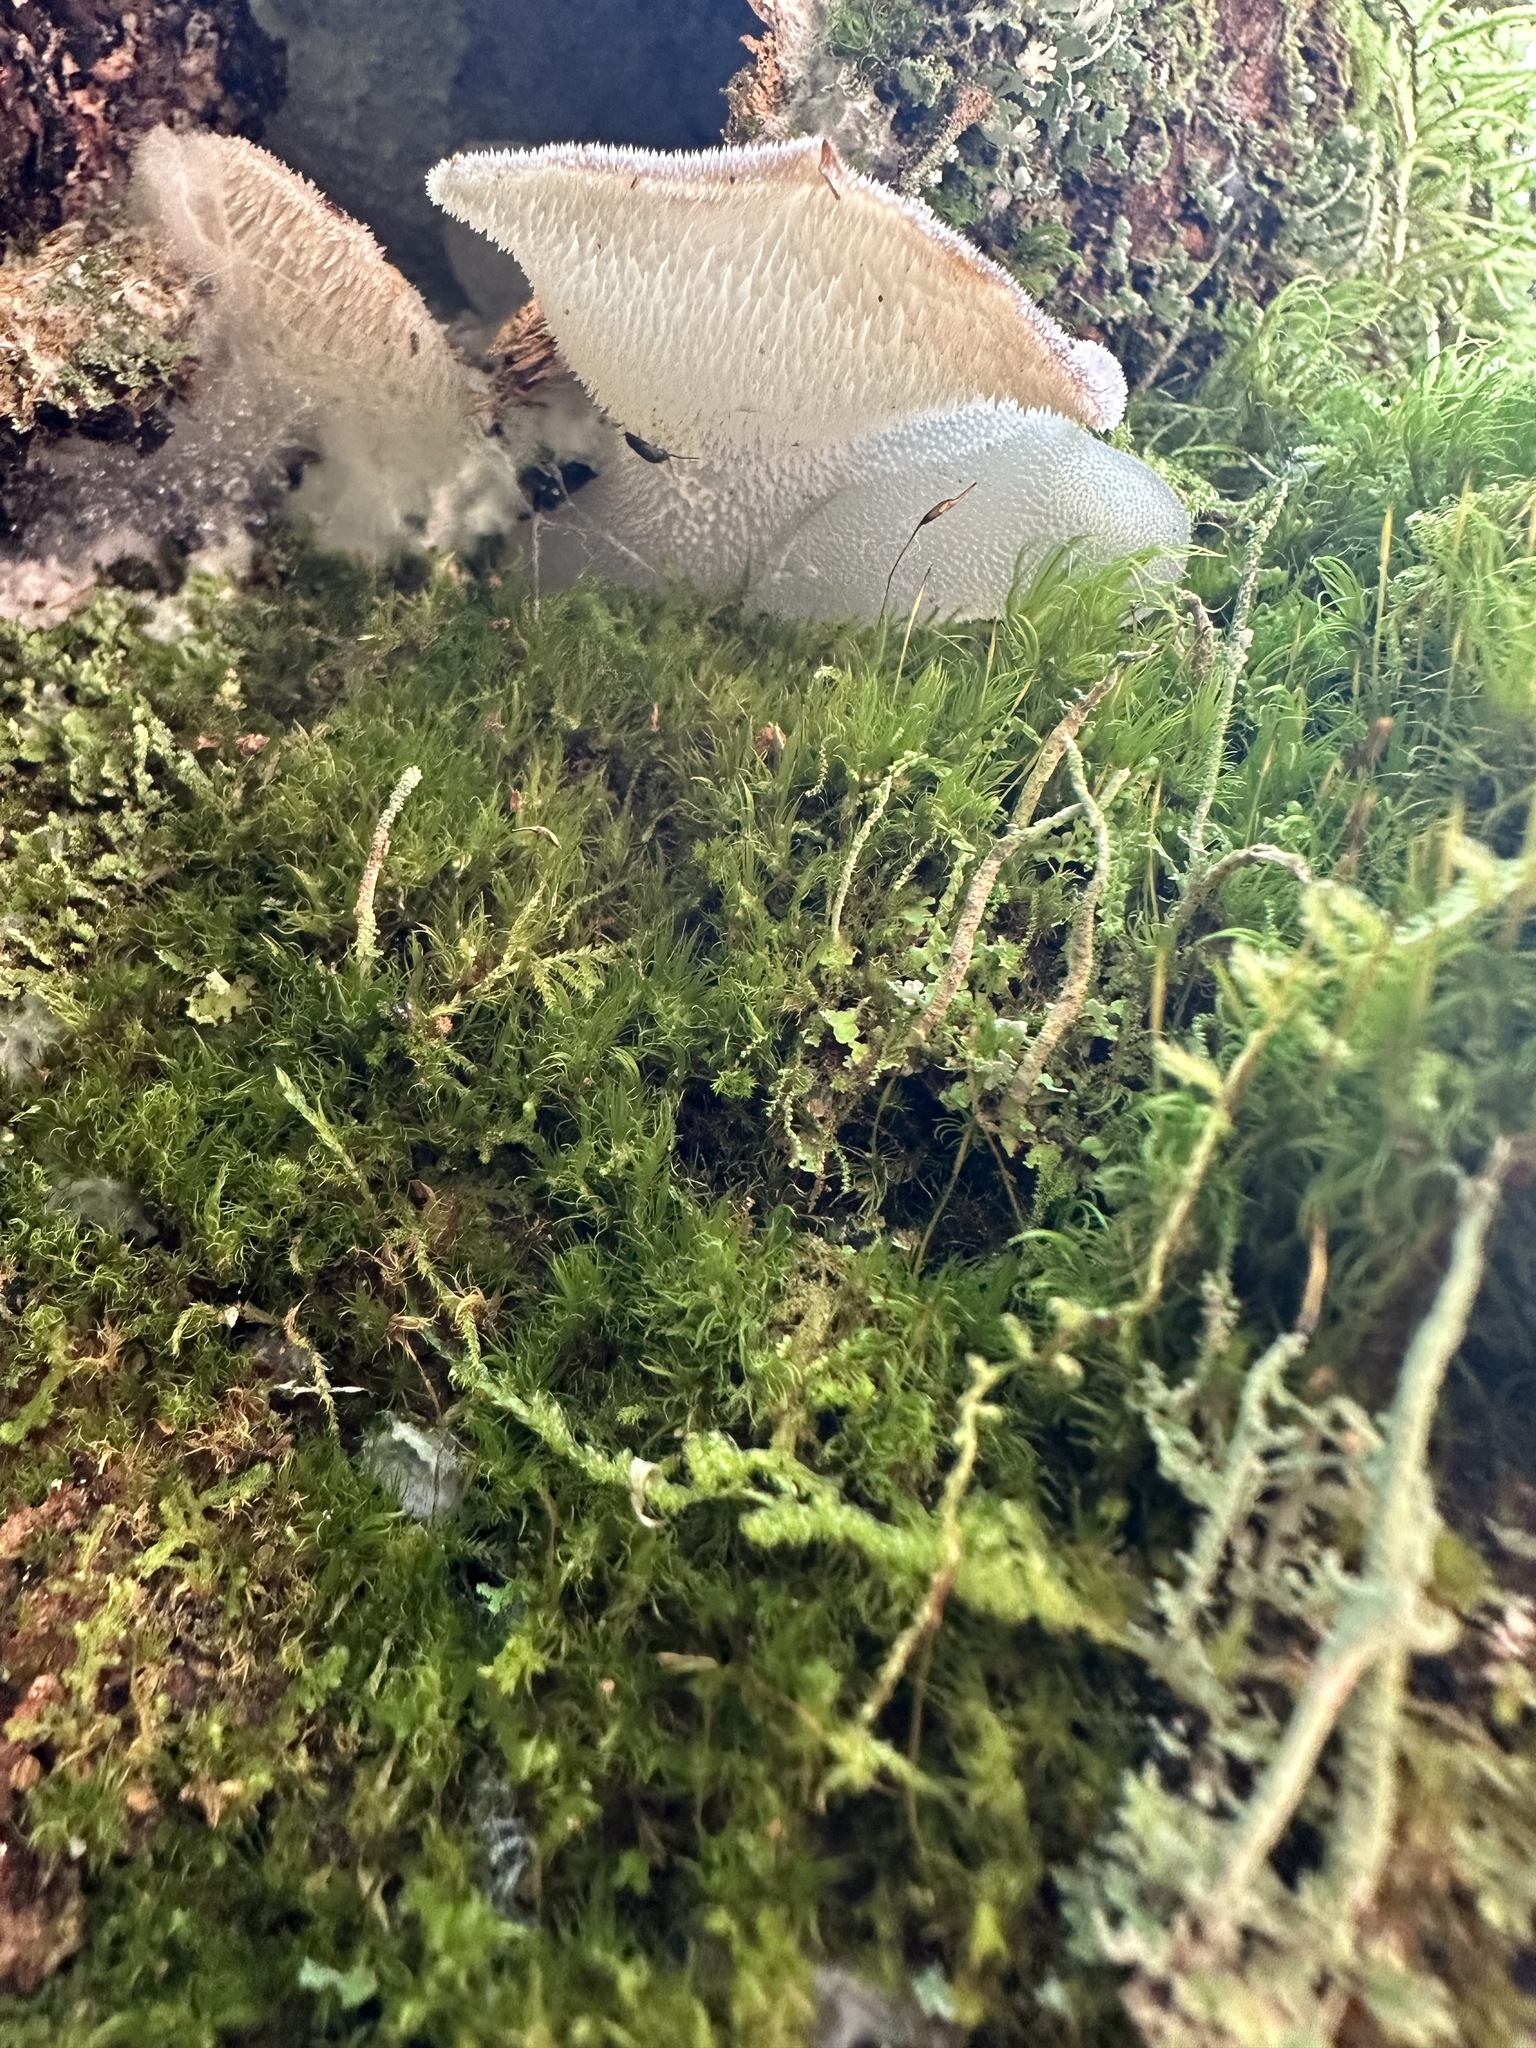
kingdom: Fungi
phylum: Basidiomycota
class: Agaricomycetes
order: Auriculariales
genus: Pseudohydnum
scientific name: Pseudohydnum gelatinosum
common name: Jelly tongue
